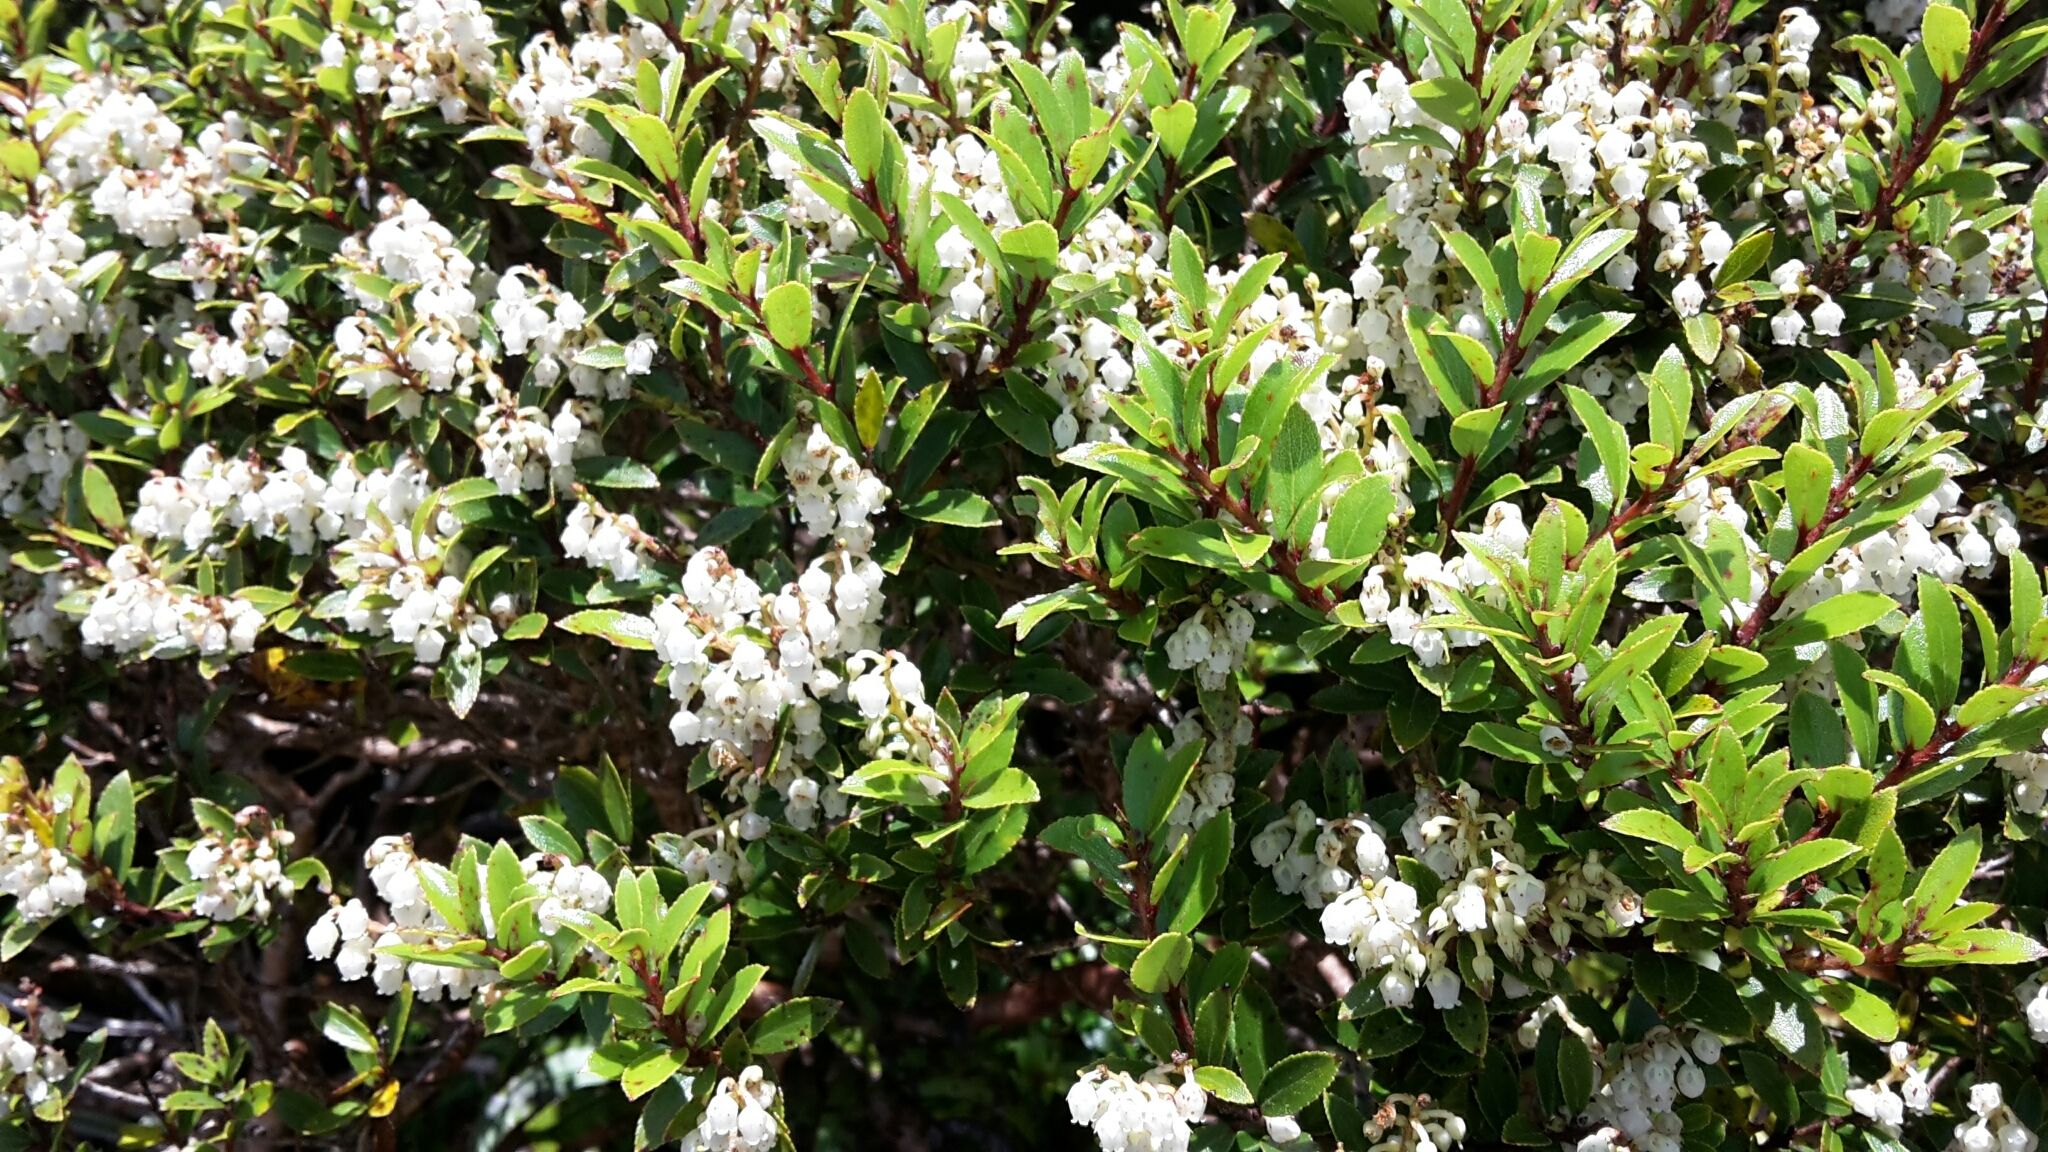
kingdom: Plantae
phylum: Tracheophyta
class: Magnoliopsida
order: Ericales
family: Ericaceae
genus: Gaultheria
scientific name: Gaultheria rupestris
